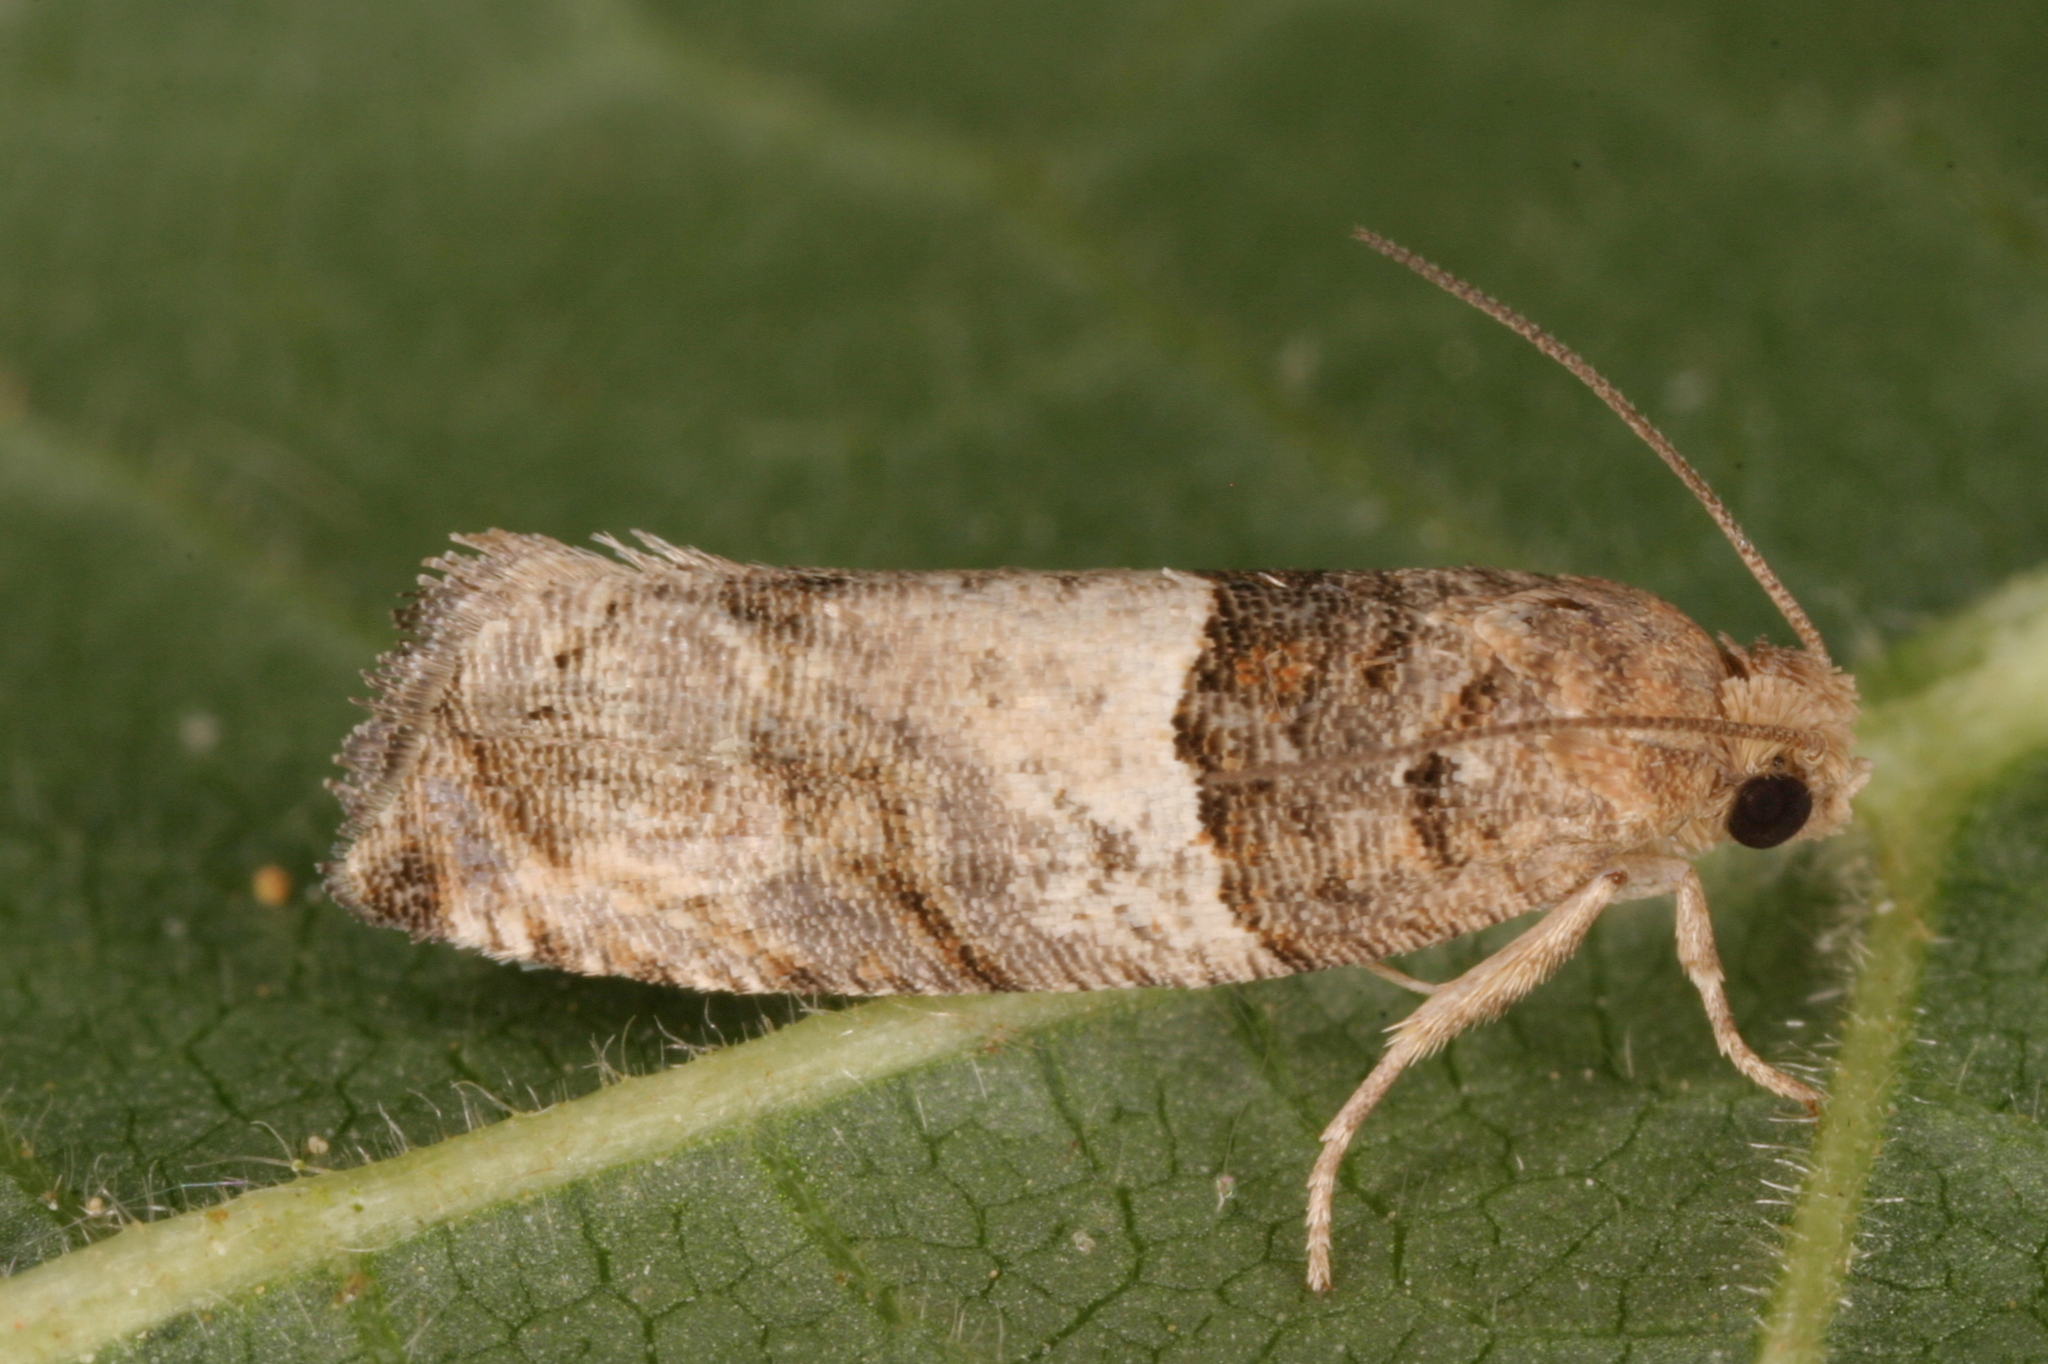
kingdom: Animalia
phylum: Arthropoda
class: Insecta
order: Lepidoptera
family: Tortricidae
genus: Gypsonoma
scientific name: Gypsonoma aceriana
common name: Poplar twig borer
